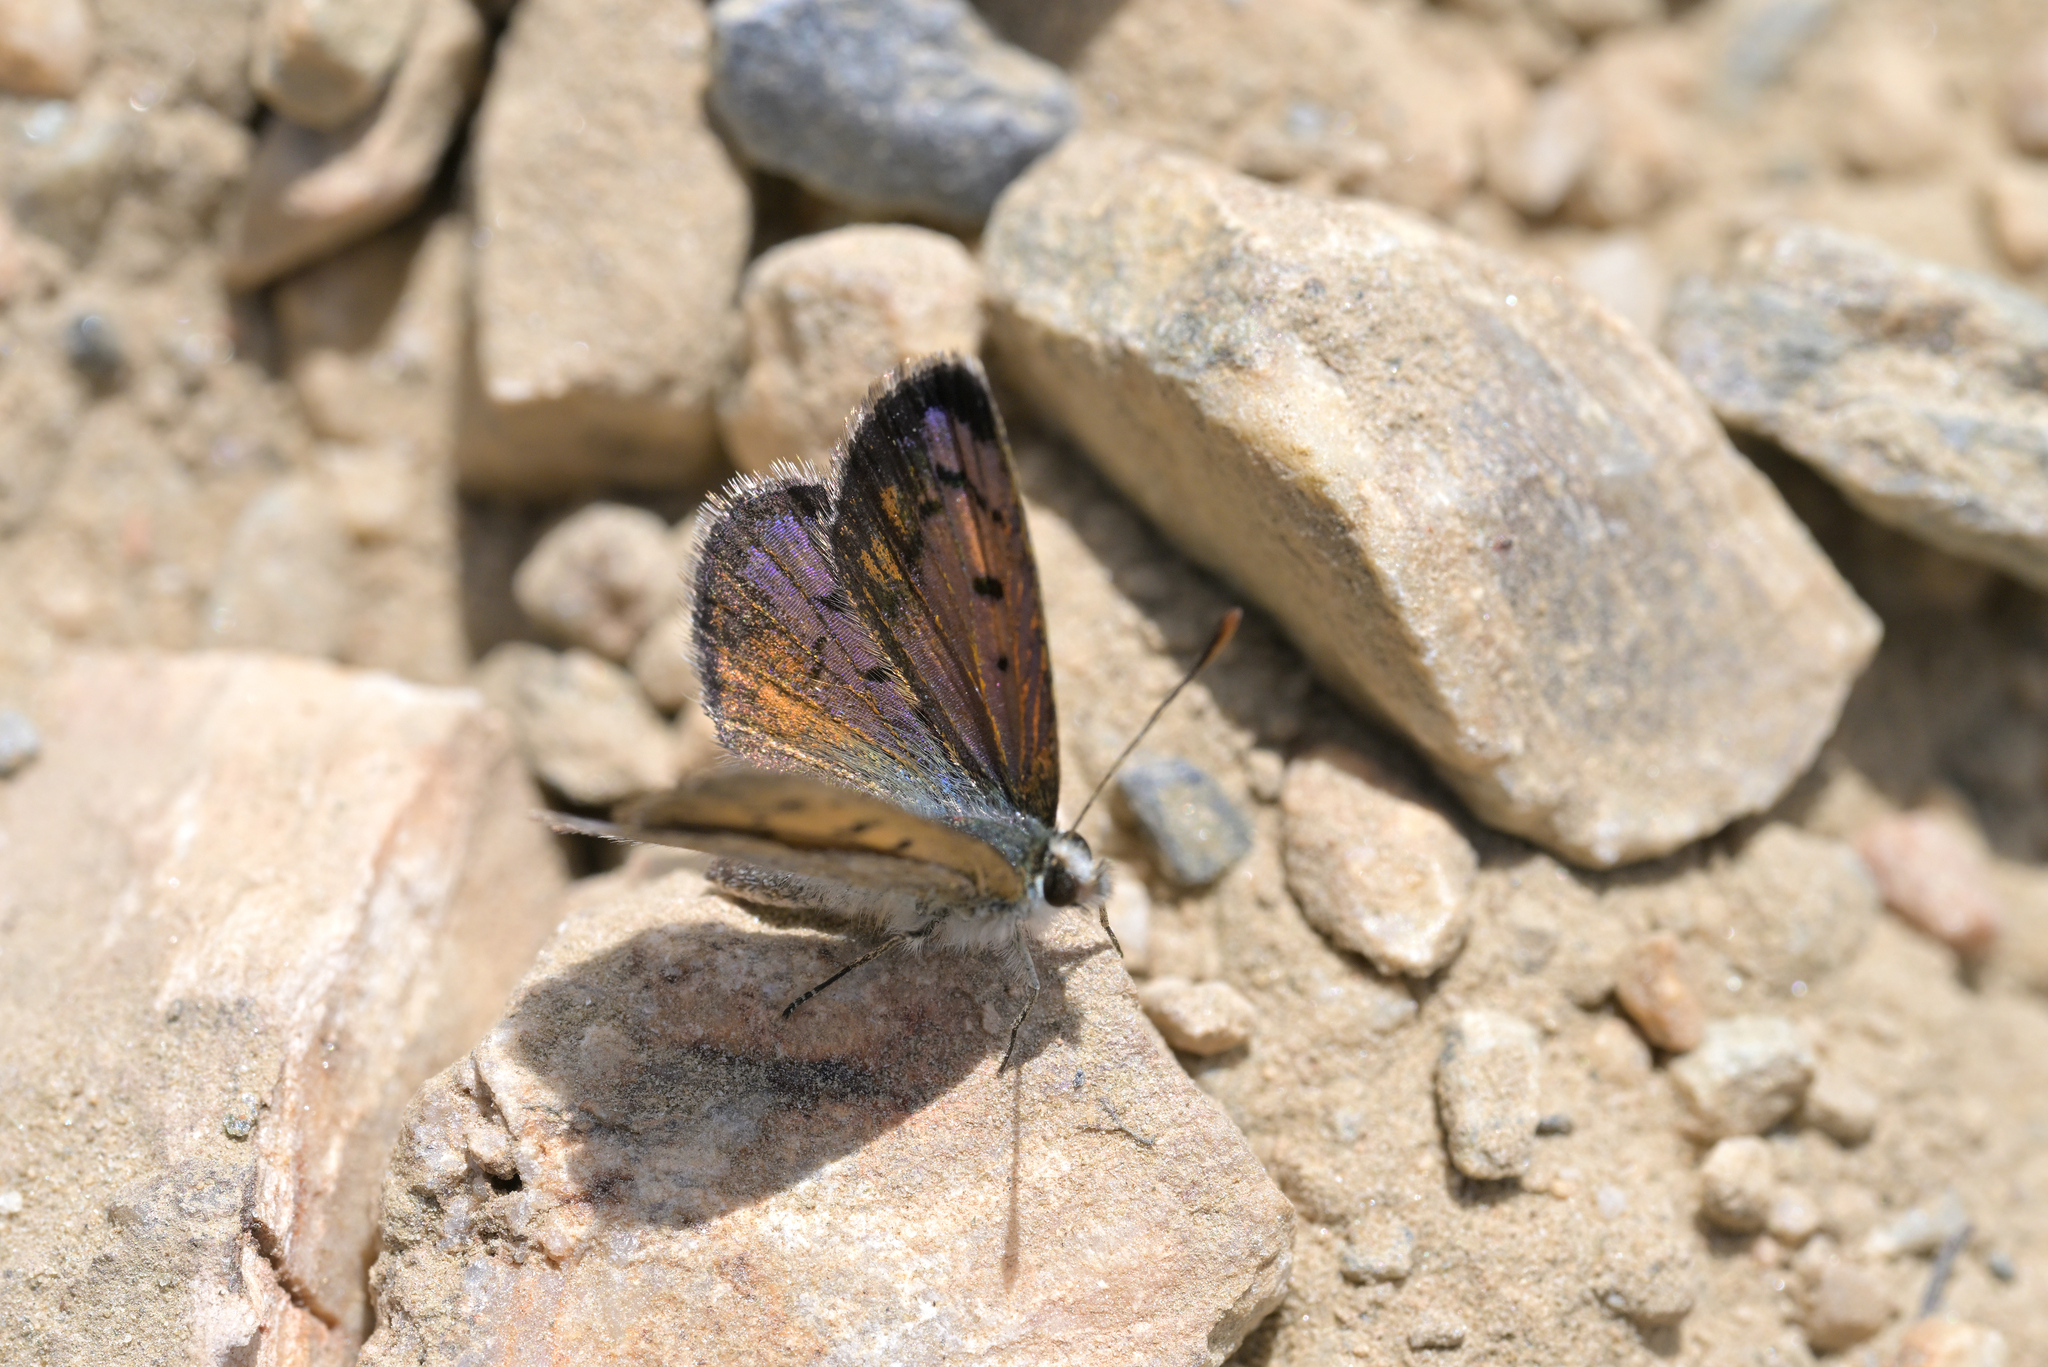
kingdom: Animalia
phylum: Arthropoda
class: Insecta
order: Lepidoptera
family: Lycaenidae
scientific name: Lycaenidae
